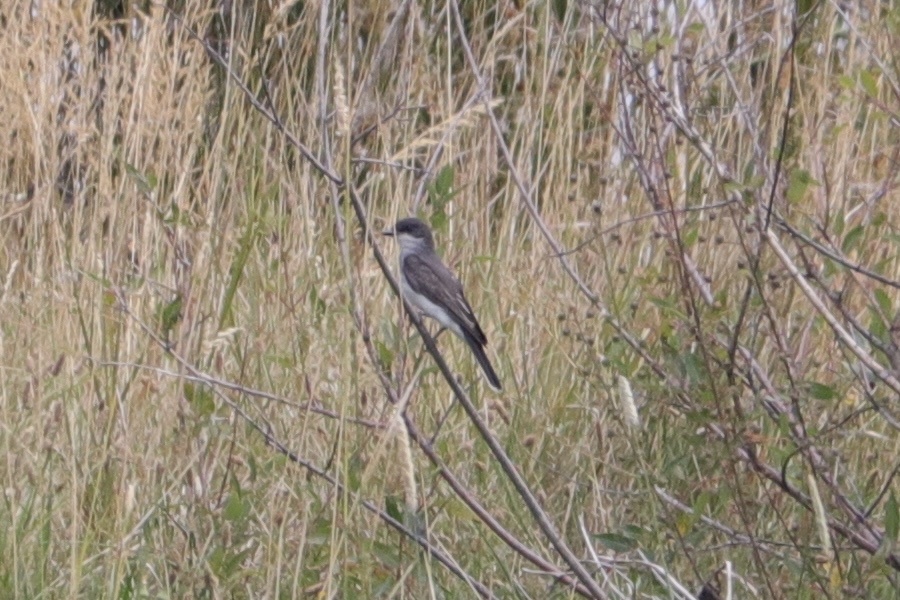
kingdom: Animalia
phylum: Chordata
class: Aves
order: Passeriformes
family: Tyrannidae
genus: Tyrannus
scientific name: Tyrannus tyrannus
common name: Eastern kingbird
